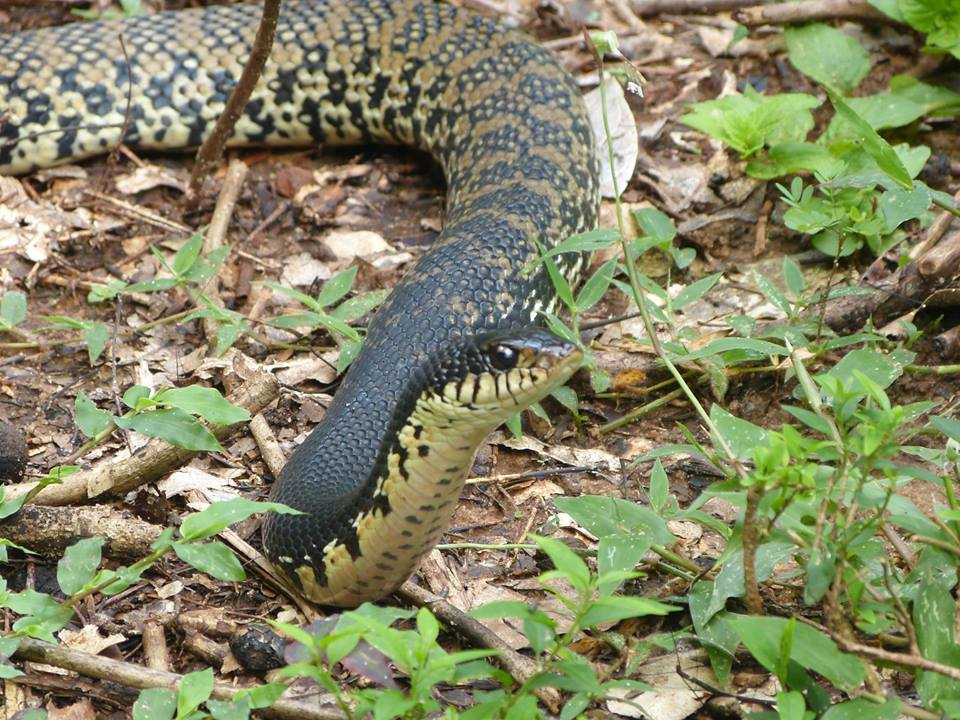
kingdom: Animalia
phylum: Chordata
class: Squamata
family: Pseudoxyrhophiidae
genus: Leioheterodon
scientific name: Leioheterodon madagascariensis
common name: Malagasy giant hognose snake
